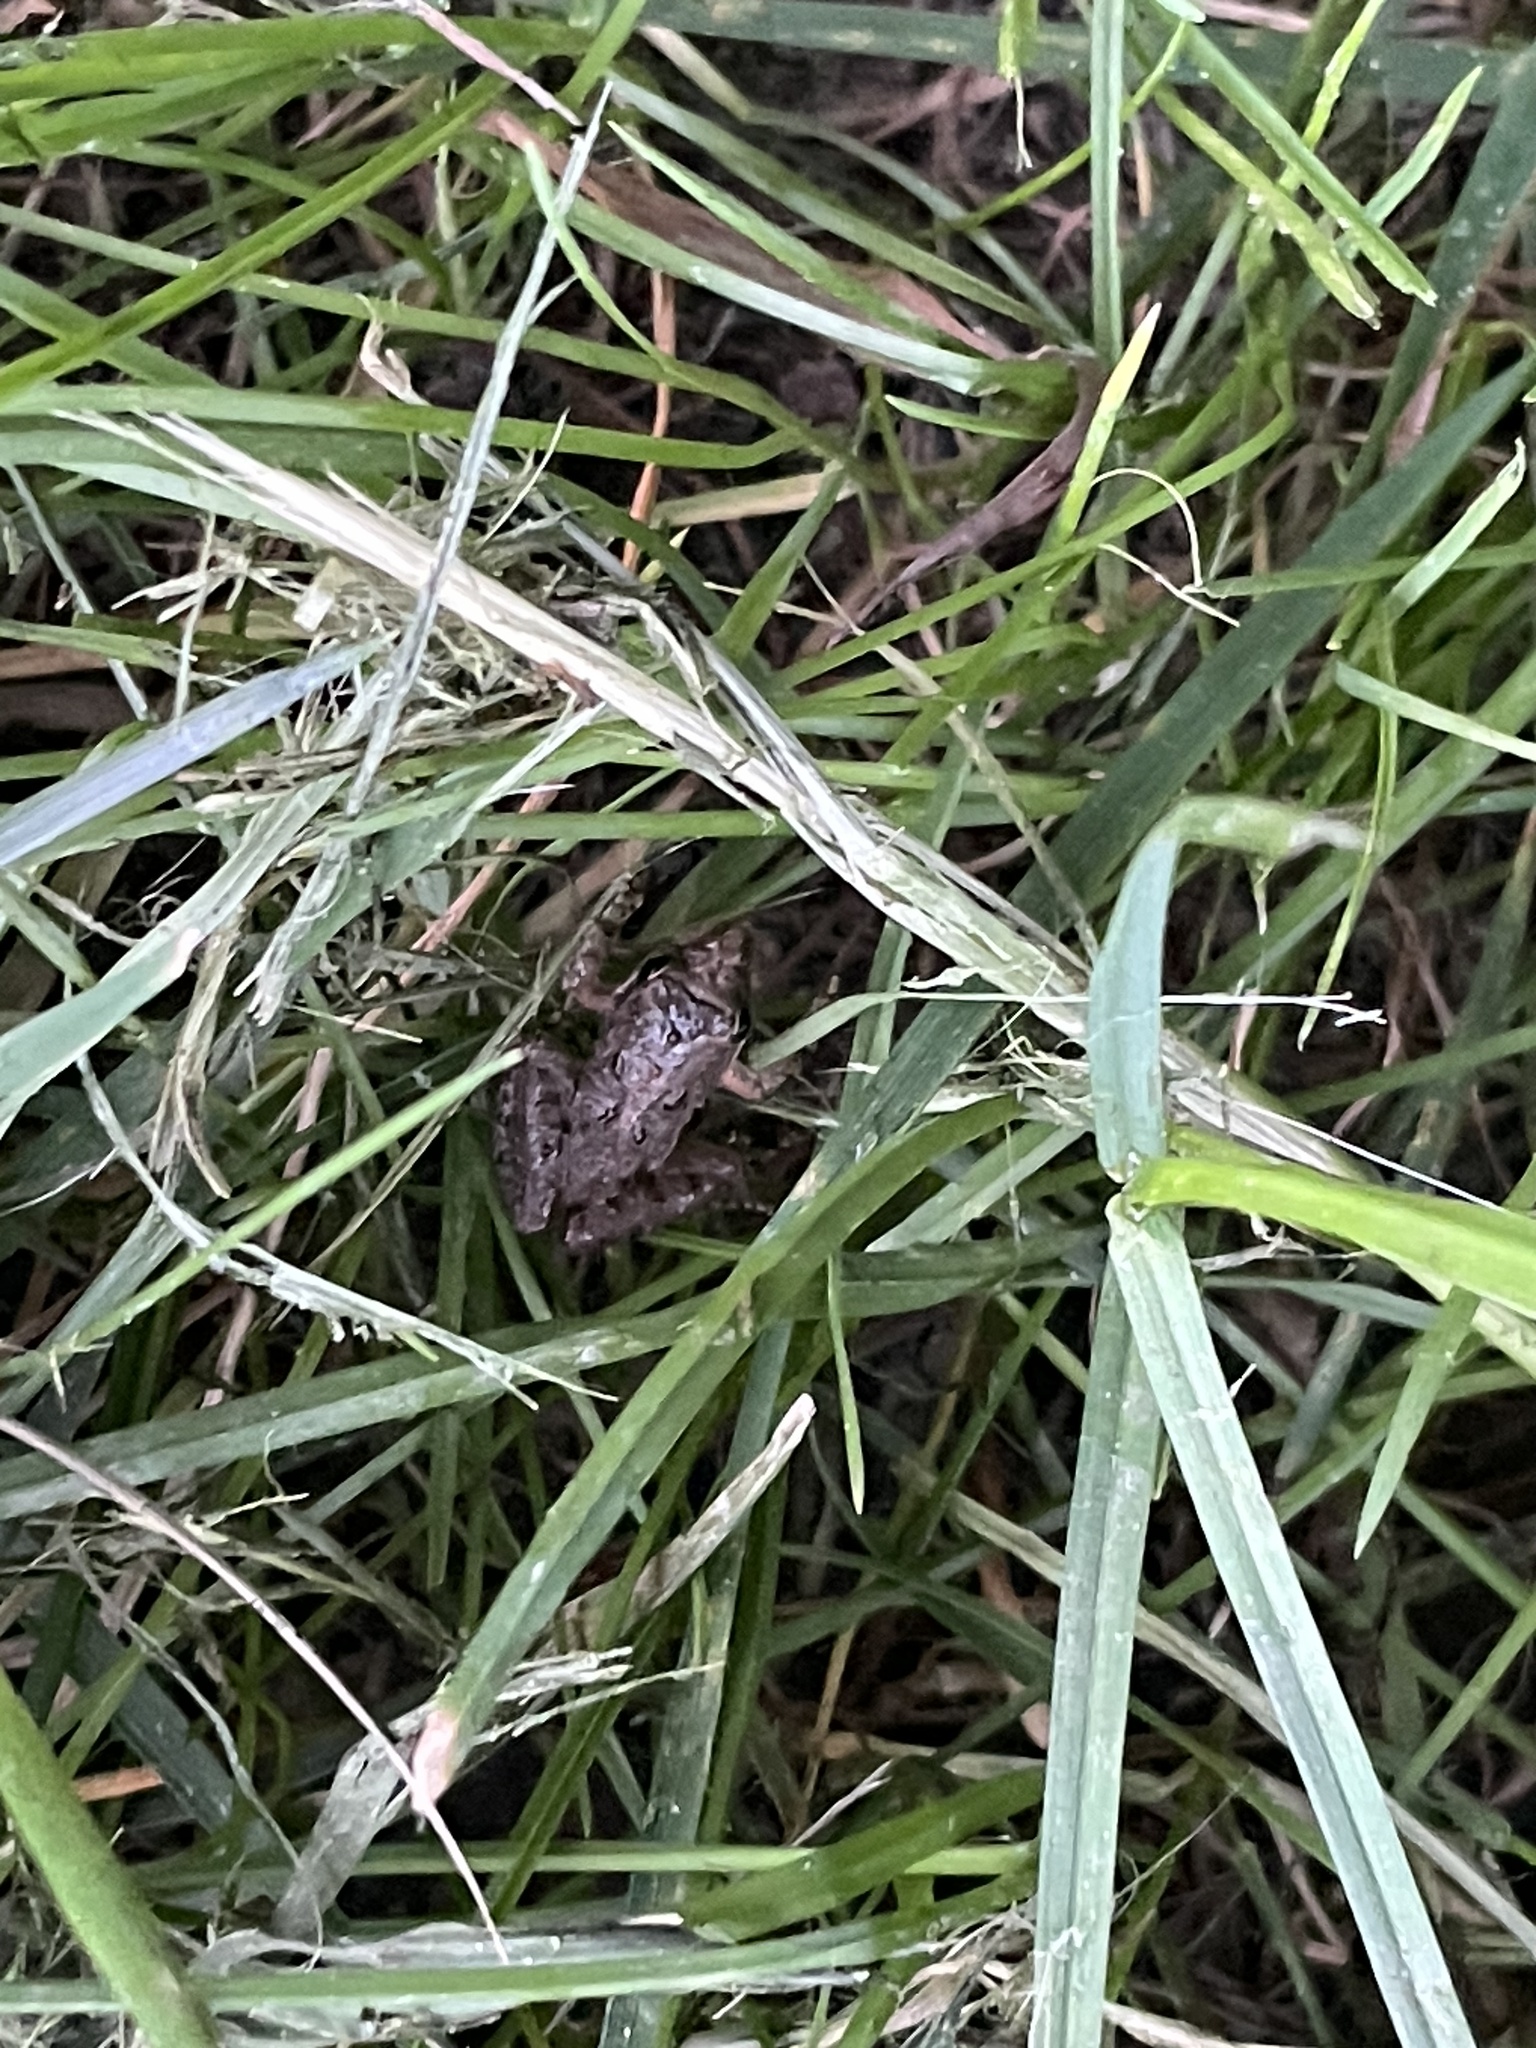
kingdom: Animalia
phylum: Chordata
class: Amphibia
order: Anura
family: Hylidae
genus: Acris
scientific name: Acris crepitans
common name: Northern cricket frog
